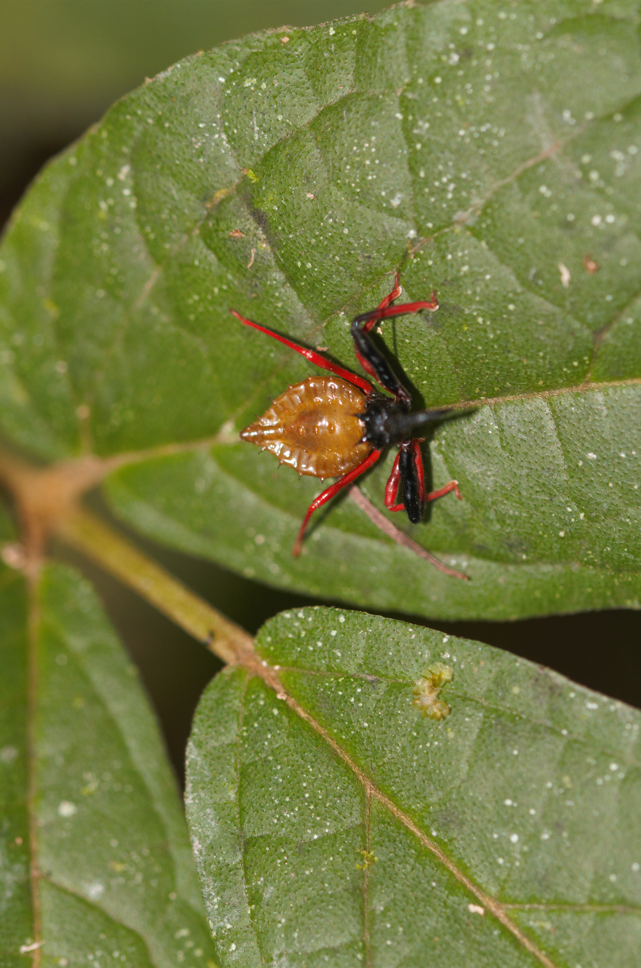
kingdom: Animalia
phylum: Arthropoda
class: Insecta
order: Hemiptera
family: Reduviidae
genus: Erbessus
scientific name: Erbessus rufiventris
